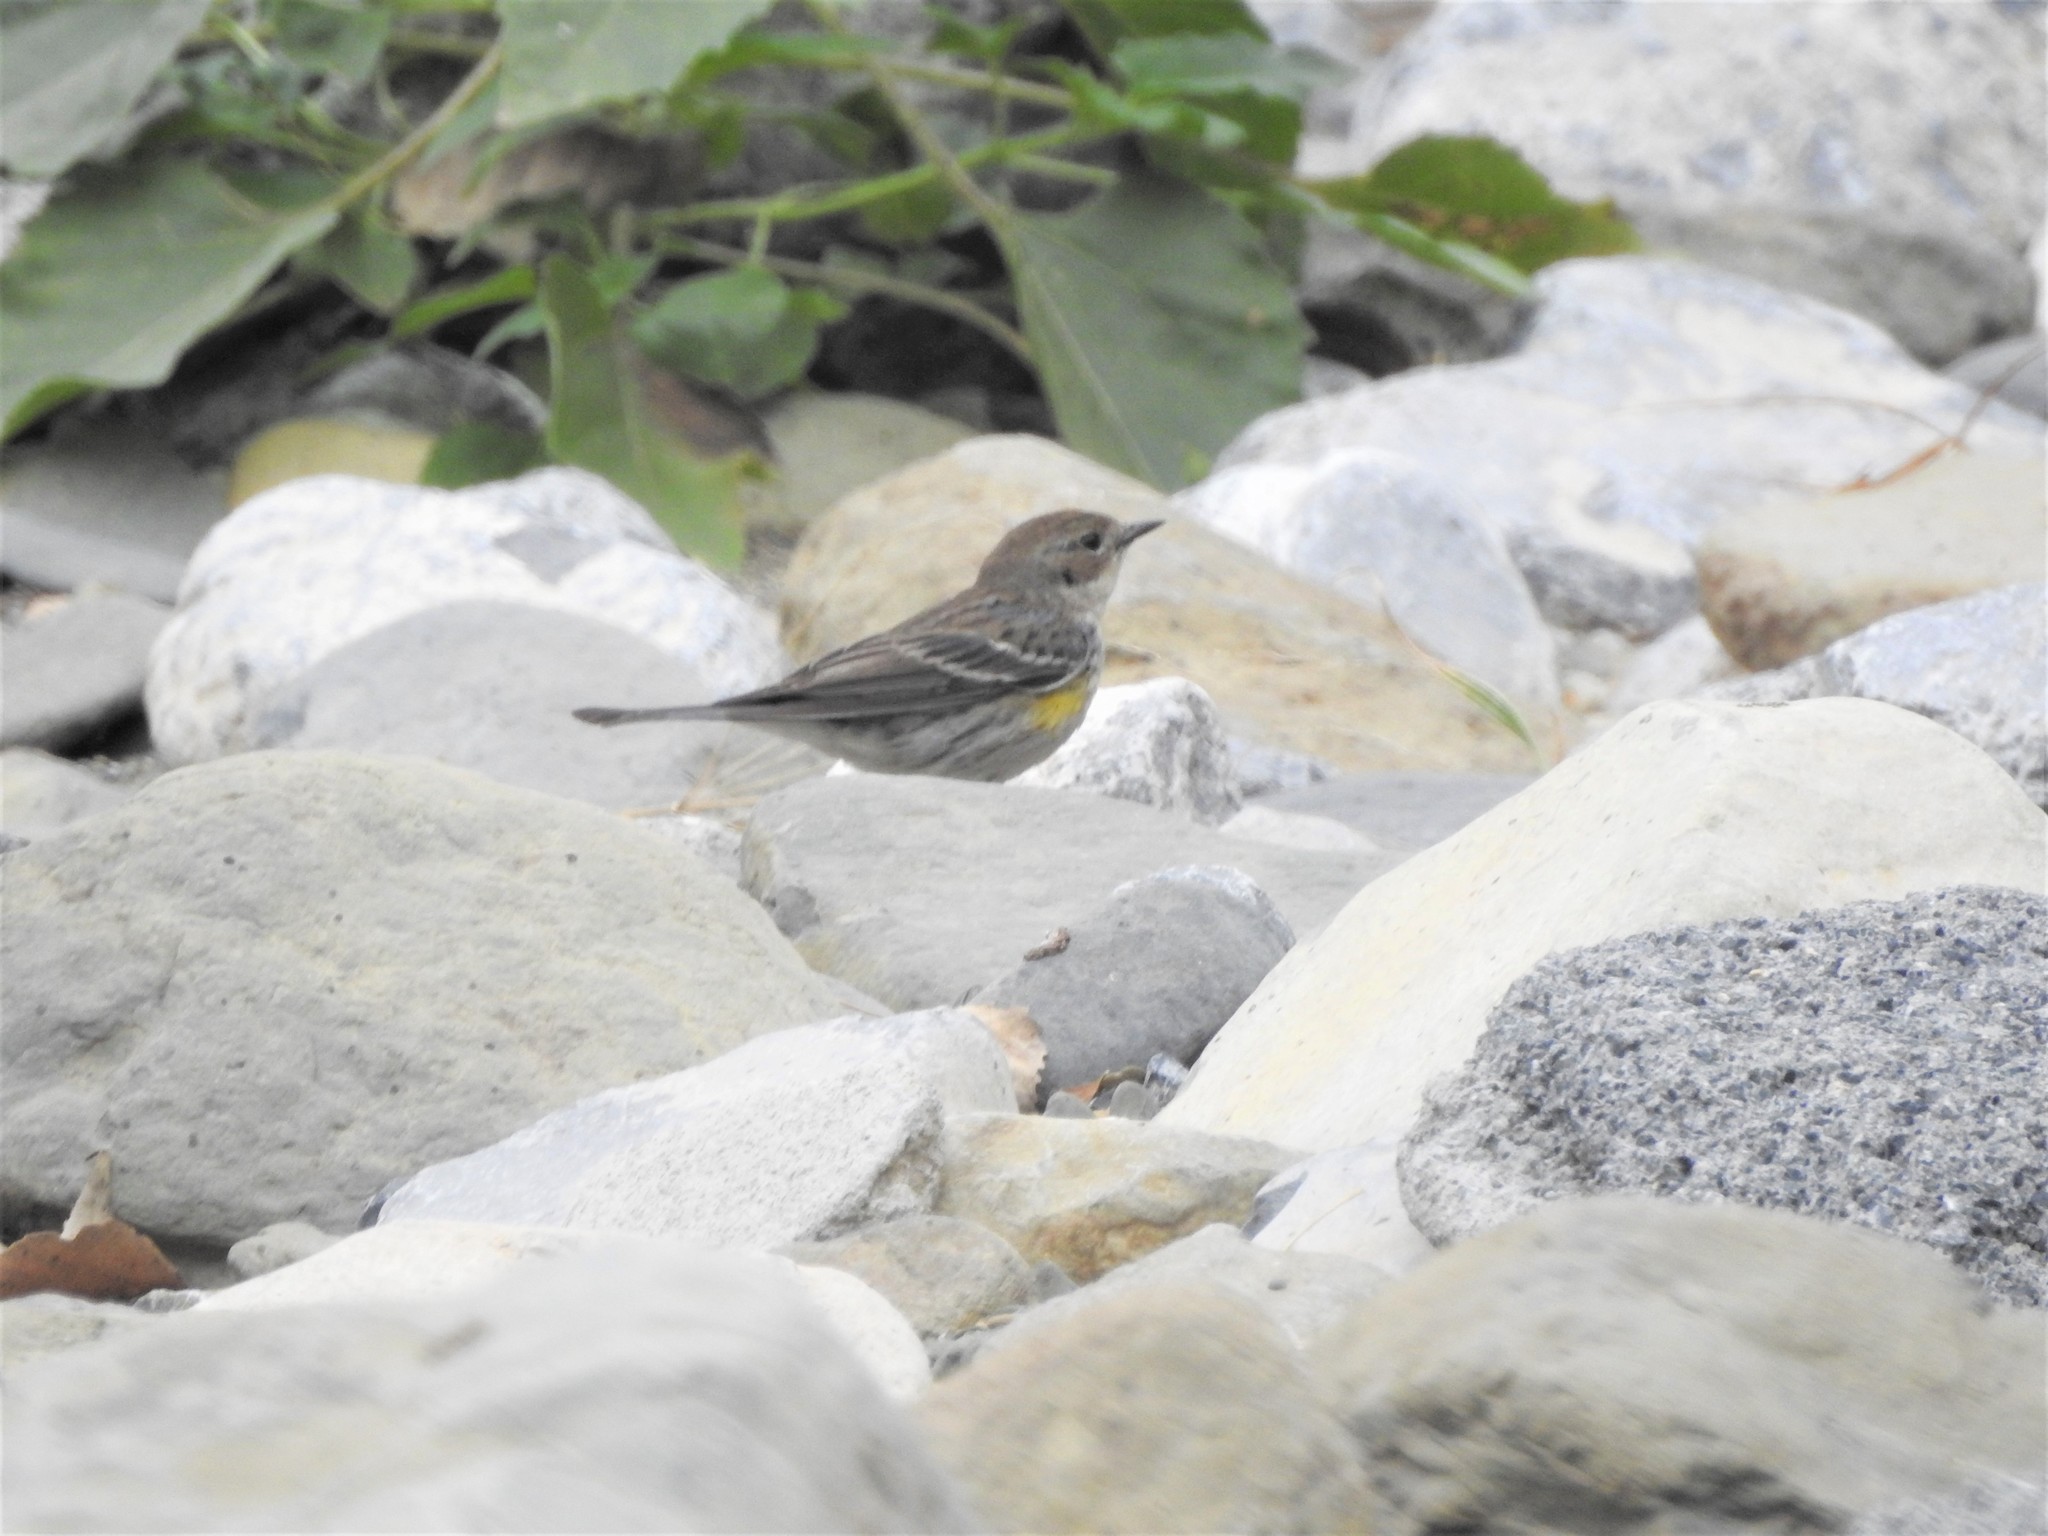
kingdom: Animalia
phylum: Chordata
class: Aves
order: Passeriformes
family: Parulidae
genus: Setophaga
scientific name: Setophaga coronata
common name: Myrtle warbler
